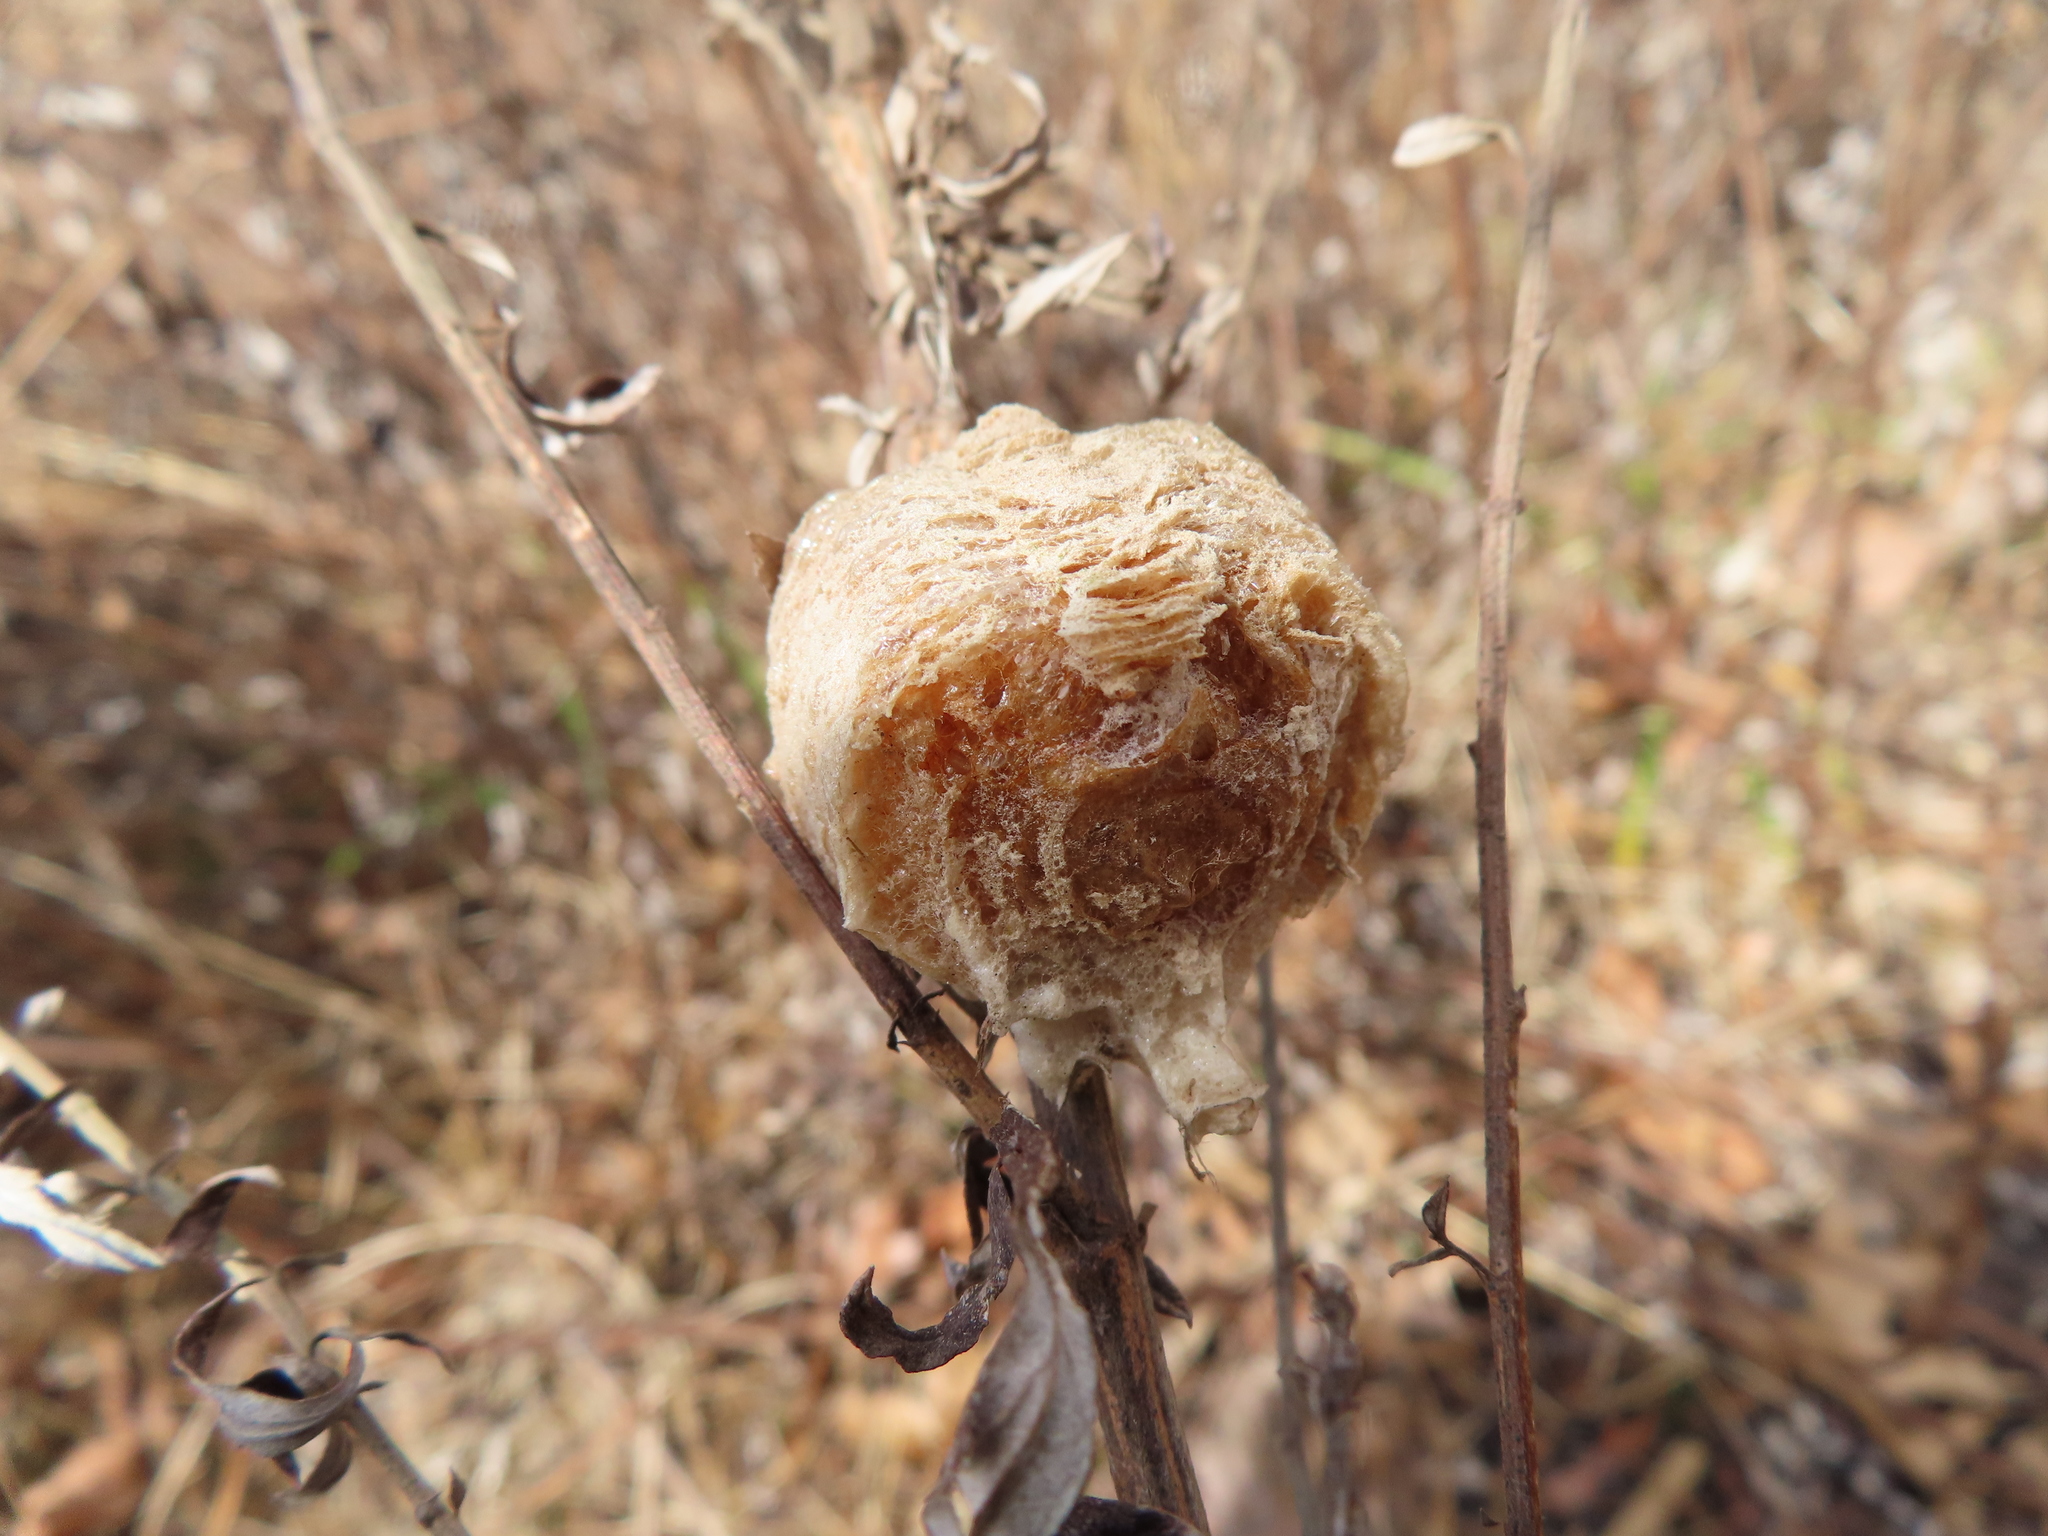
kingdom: Animalia
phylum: Arthropoda
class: Insecta
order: Mantodea
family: Mantidae
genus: Tenodera
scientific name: Tenodera sinensis
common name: Chinese mantis
